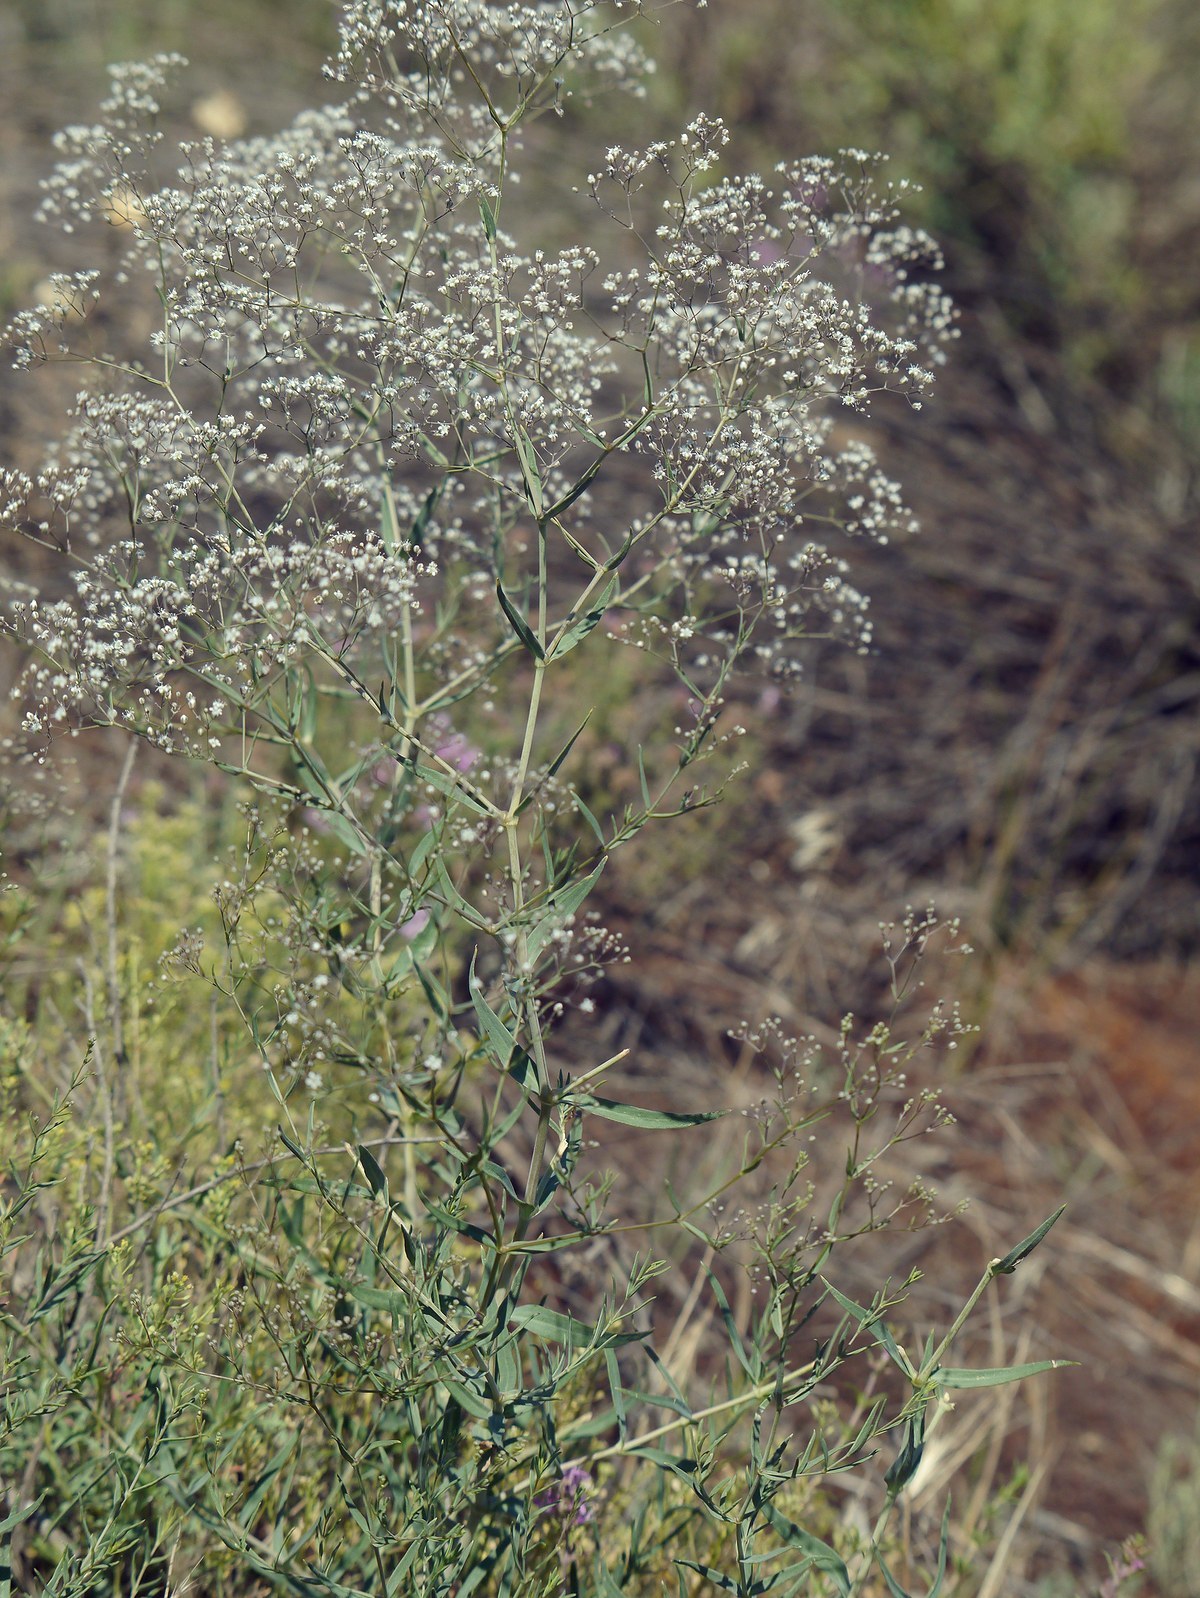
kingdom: Plantae
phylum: Tracheophyta
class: Magnoliopsida
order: Caryophyllales
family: Caryophyllaceae
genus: Gypsophila
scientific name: Gypsophila paniculata
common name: Baby's-breath
